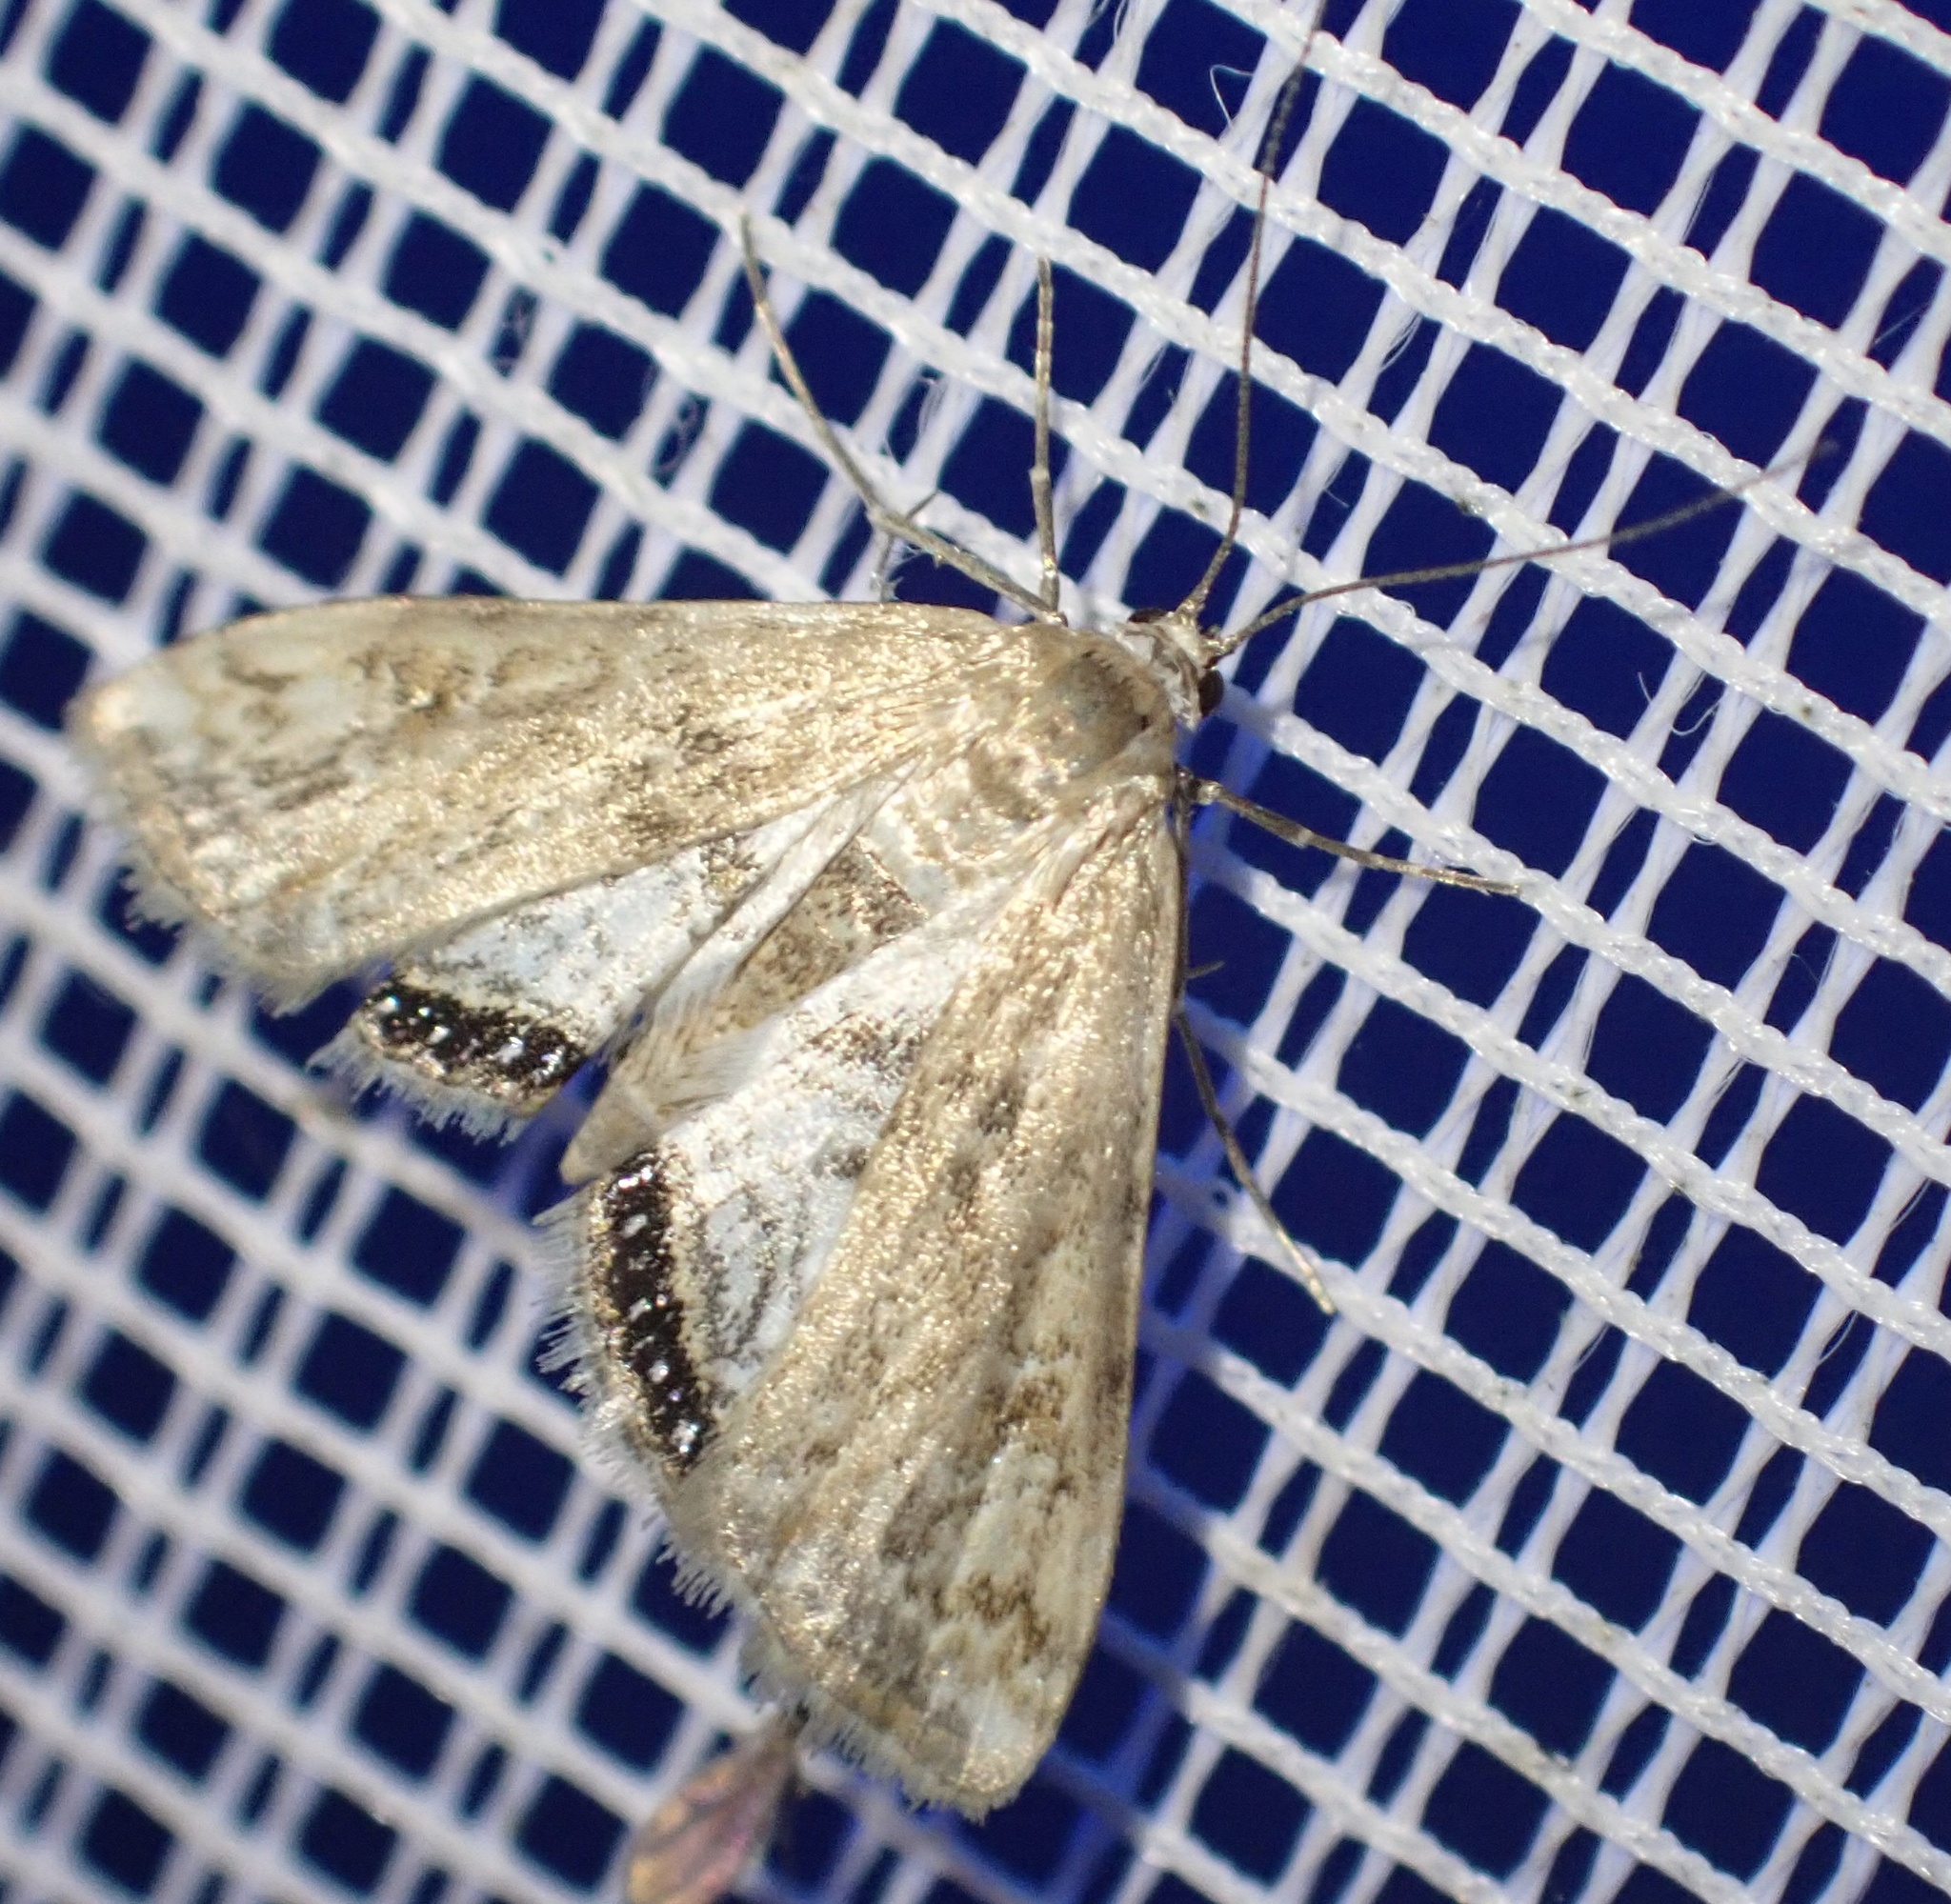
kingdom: Animalia
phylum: Arthropoda
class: Insecta
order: Lepidoptera
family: Crambidae
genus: Cataclysta
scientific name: Cataclysta lemnata
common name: Small china-mark
